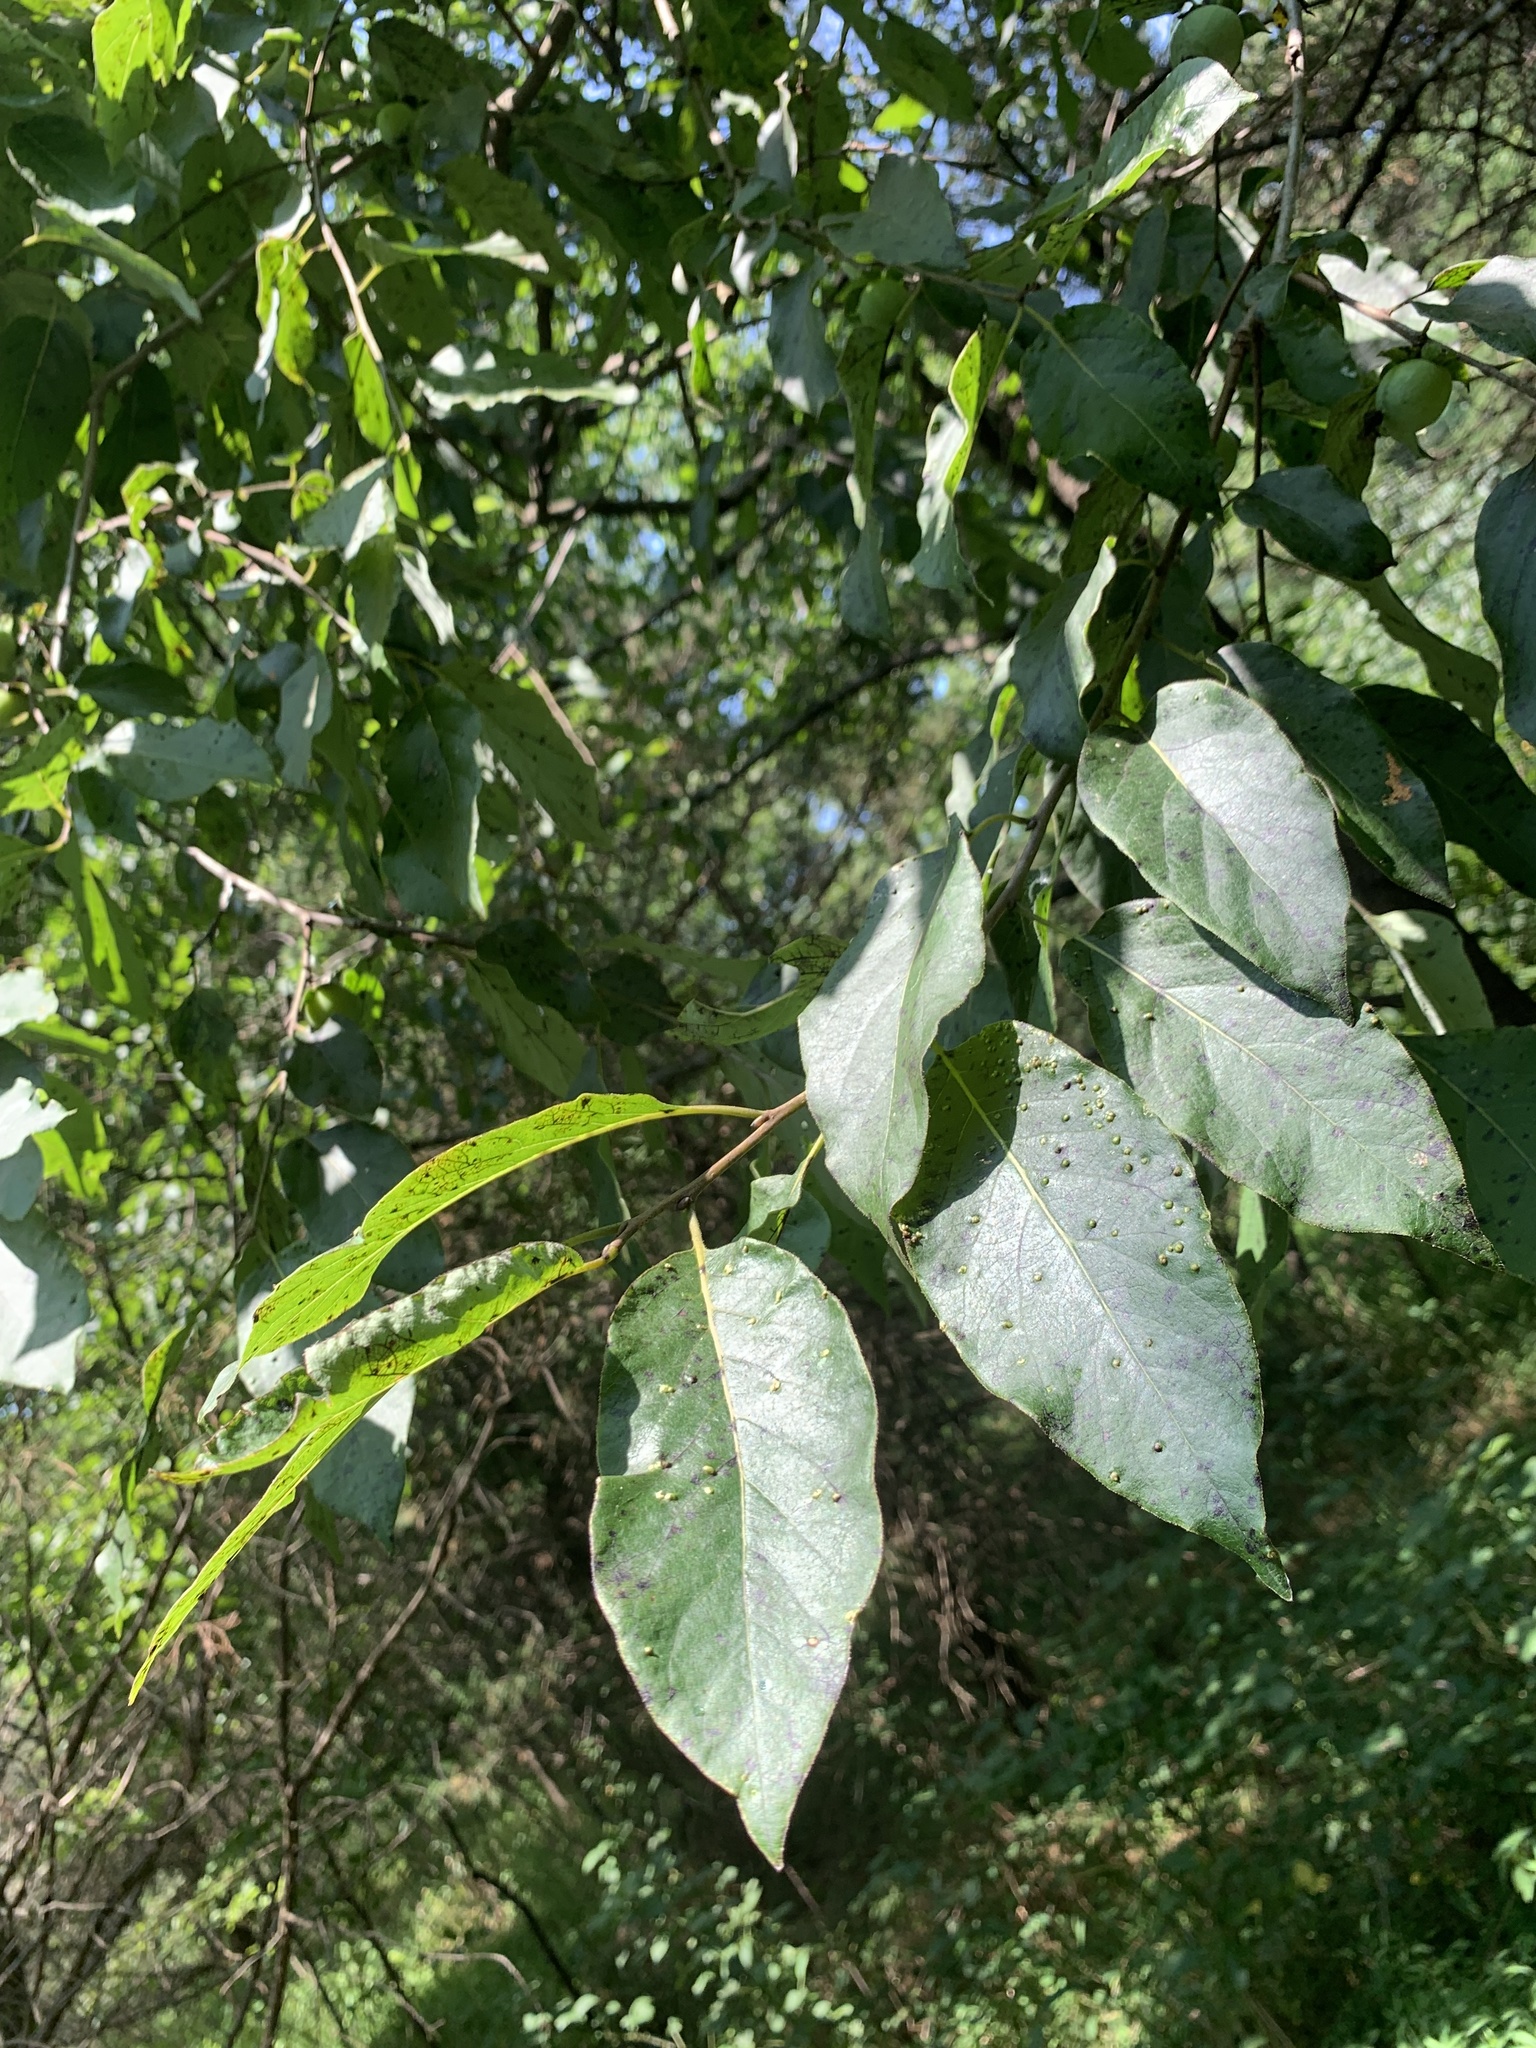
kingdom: Plantae
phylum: Tracheophyta
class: Magnoliopsida
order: Ericales
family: Ebenaceae
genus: Diospyros
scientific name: Diospyros virginiana
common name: Persimmon
